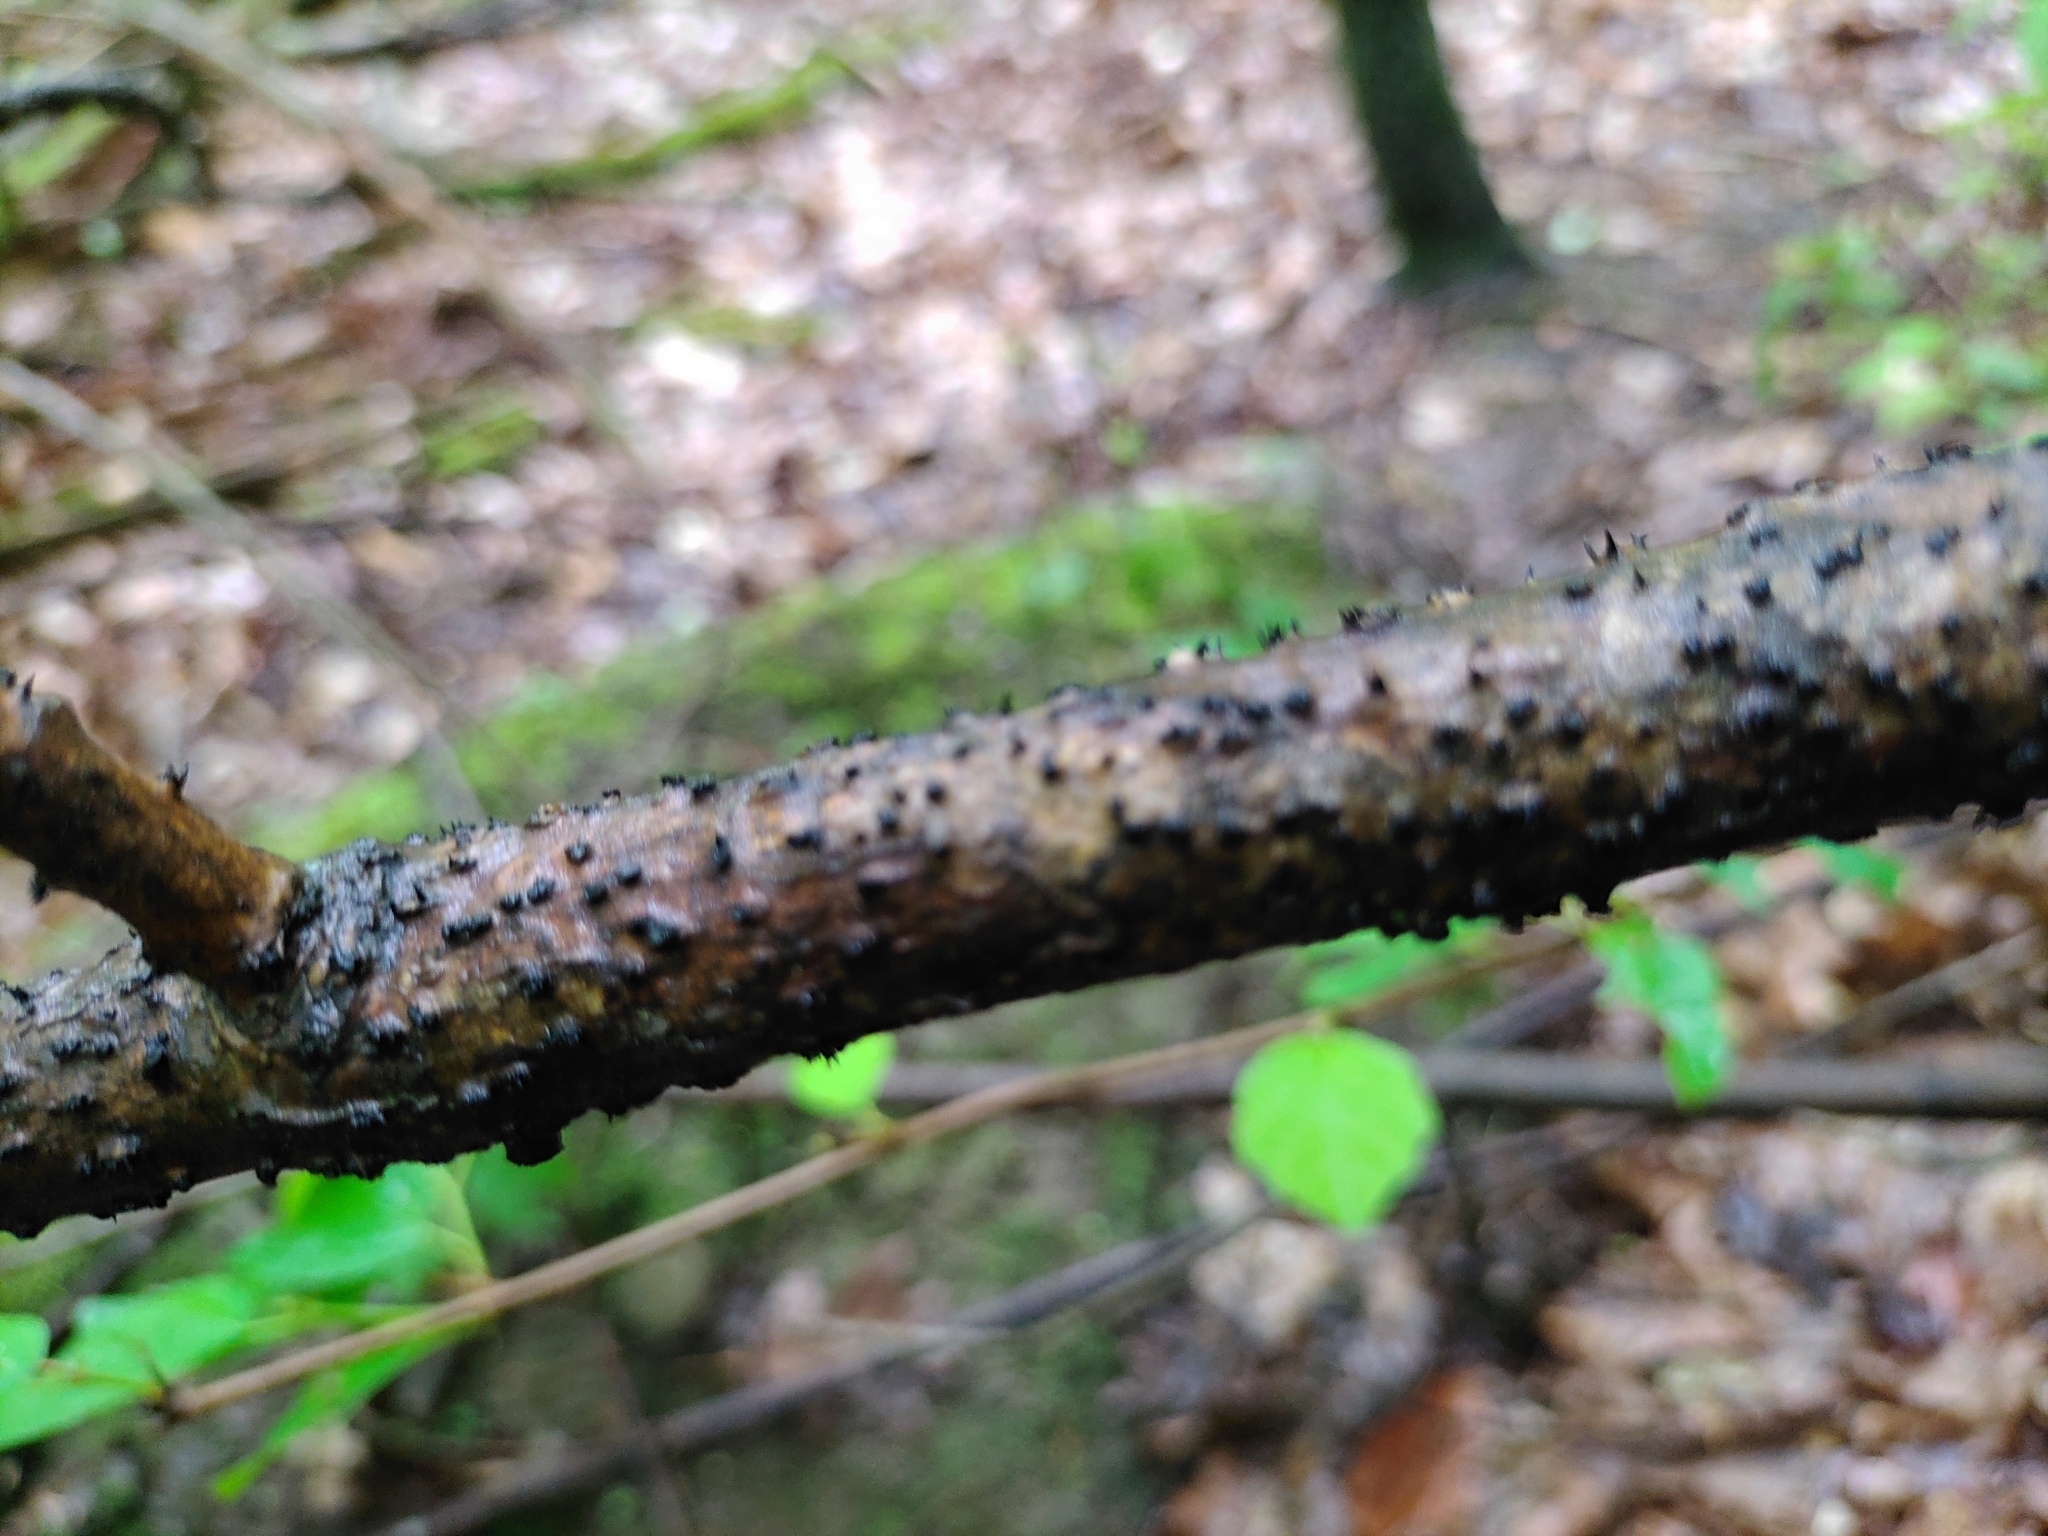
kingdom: Fungi
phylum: Ascomycota
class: Leotiomycetes
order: Leotiales
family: Tympanidaceae
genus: Durandiella
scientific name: Durandiella fraxini
